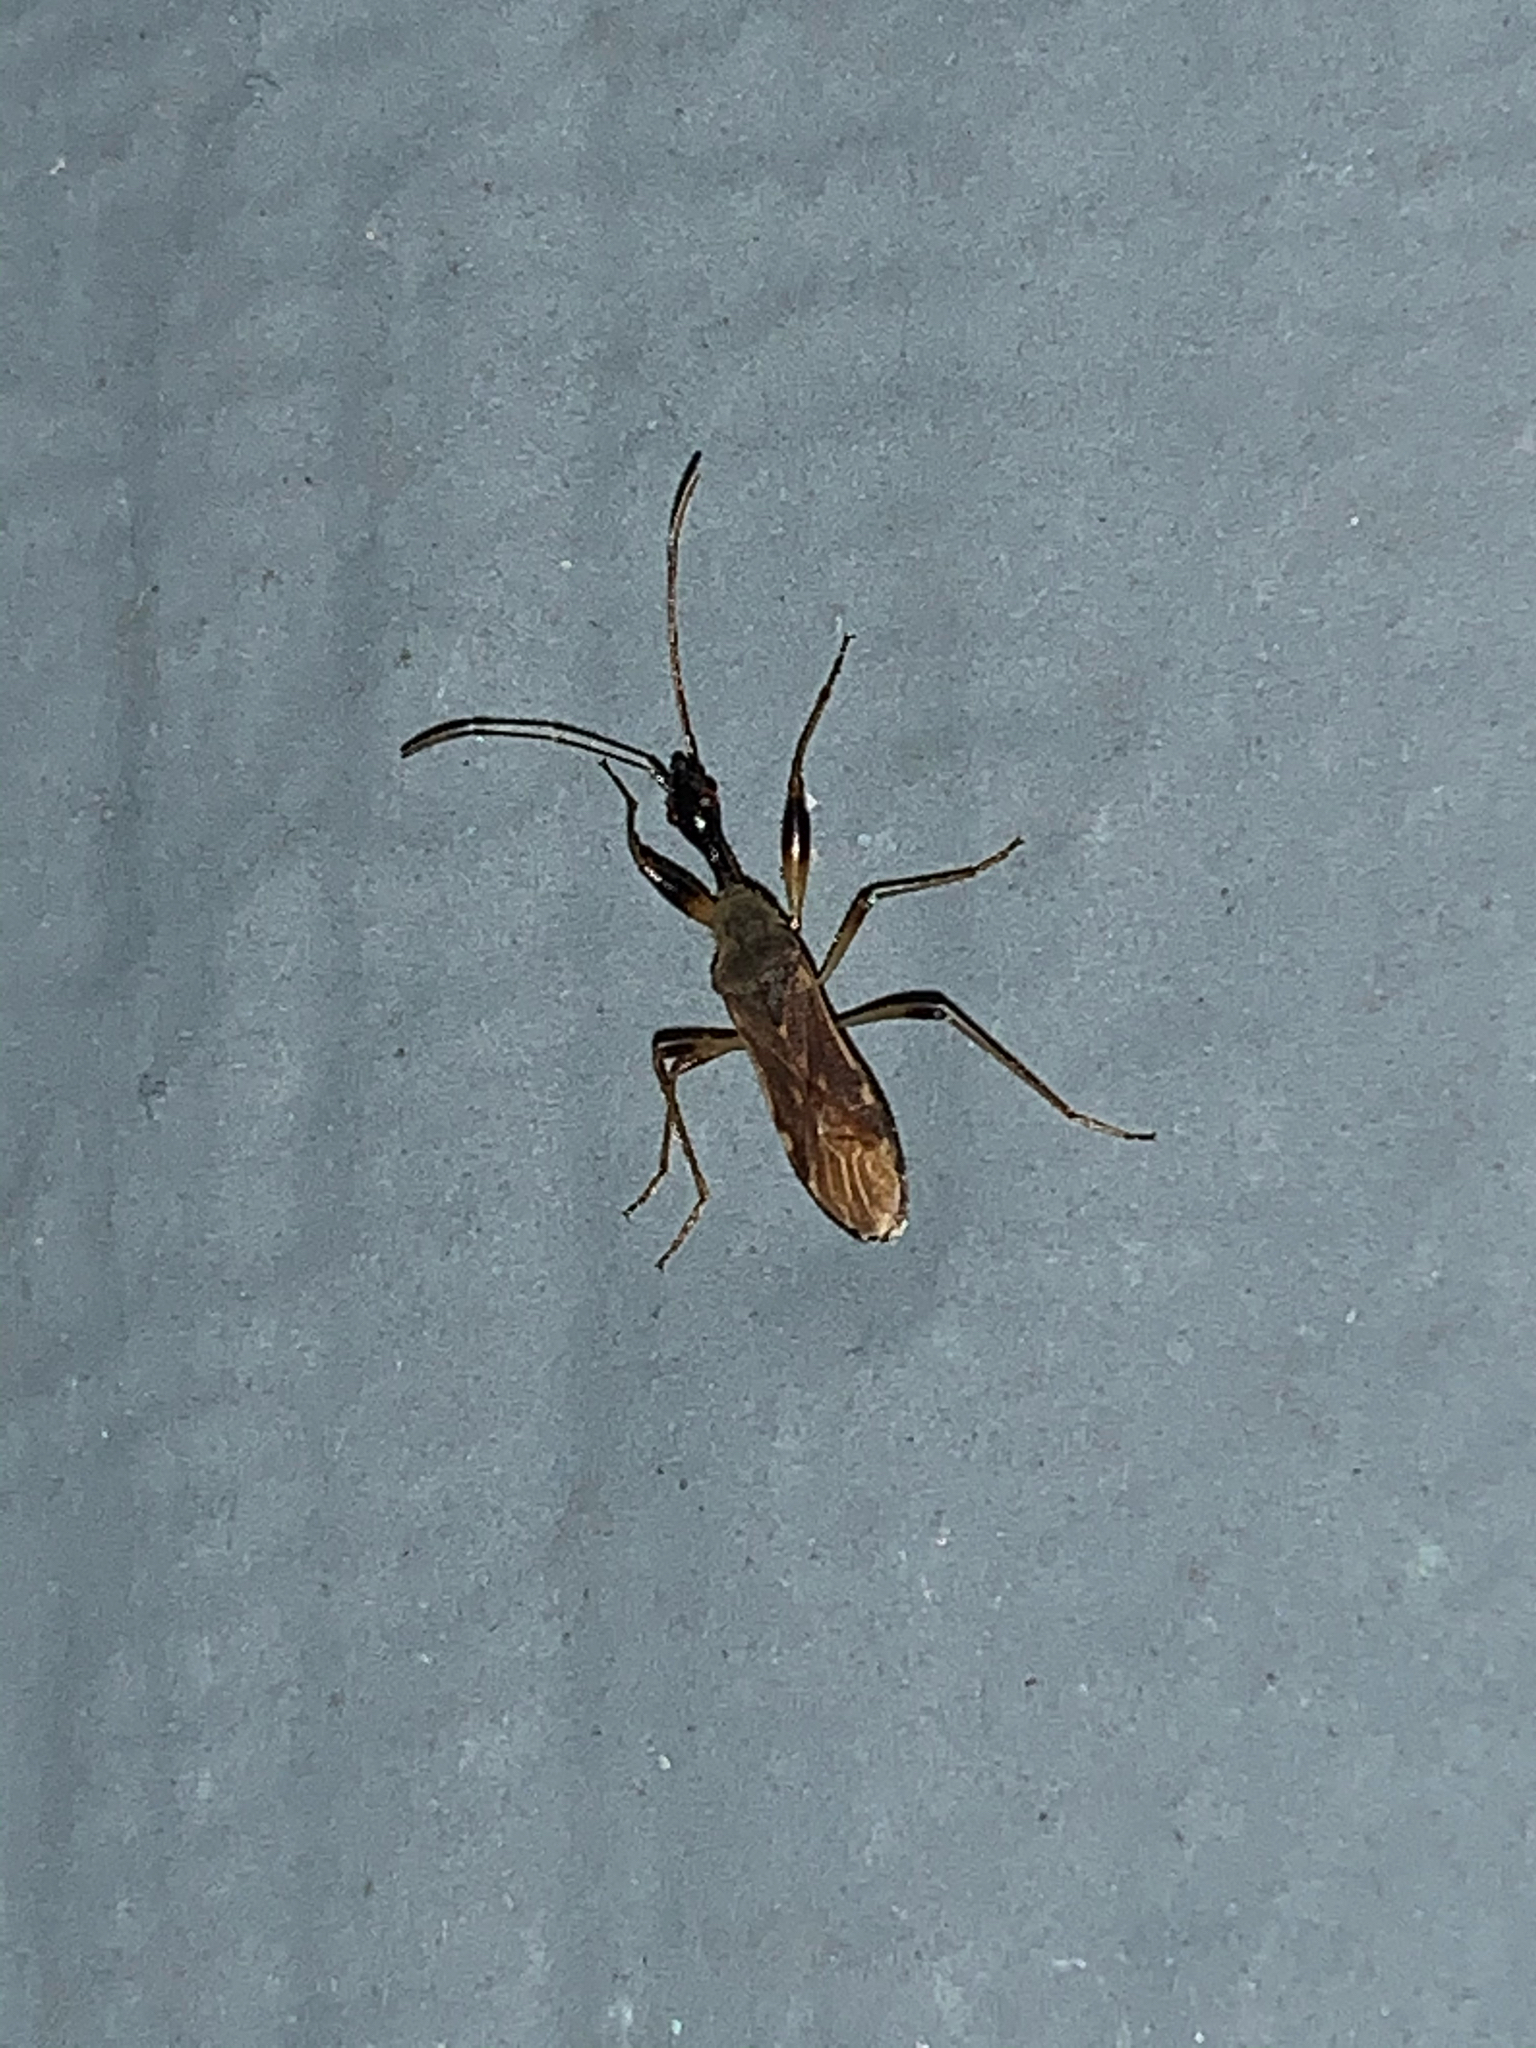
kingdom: Animalia
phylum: Arthropoda
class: Insecta
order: Hemiptera
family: Rhyparochromidae
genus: Myodocha
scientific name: Myodocha serripes
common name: Long-necked seed bug
